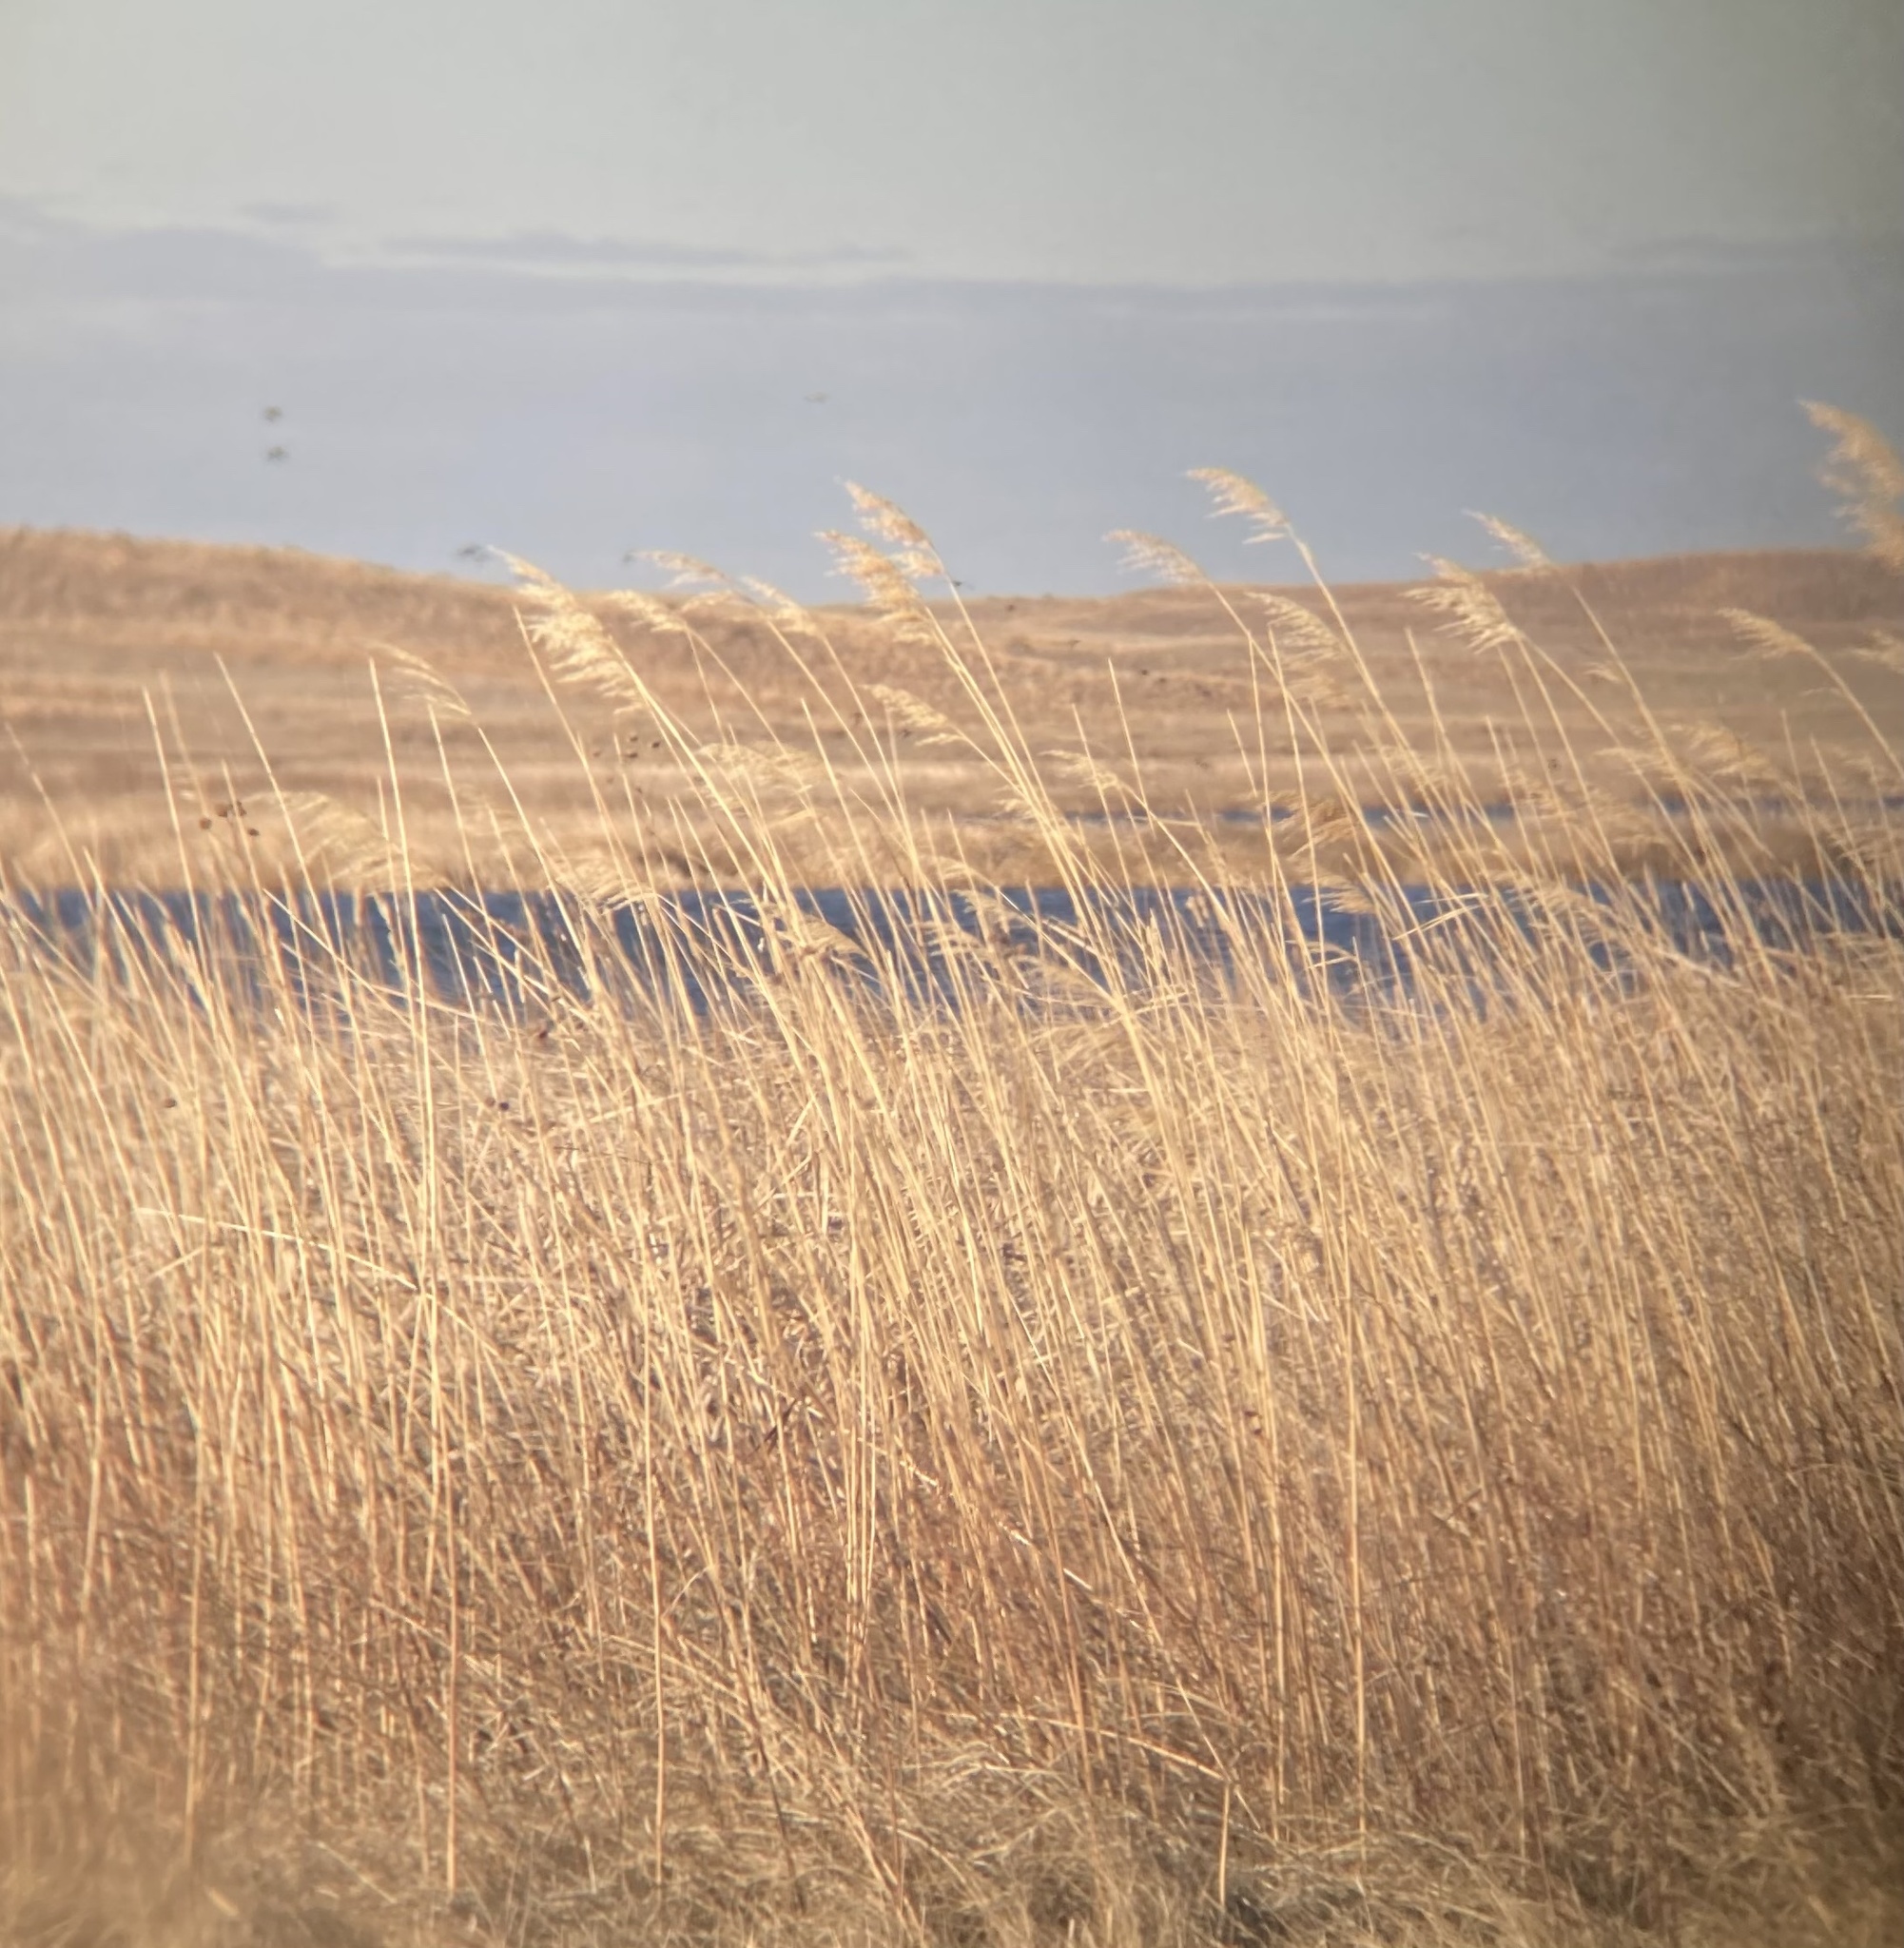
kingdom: Plantae
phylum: Tracheophyta
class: Liliopsida
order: Poales
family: Poaceae
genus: Phragmites
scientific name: Phragmites australis
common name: Common reed
